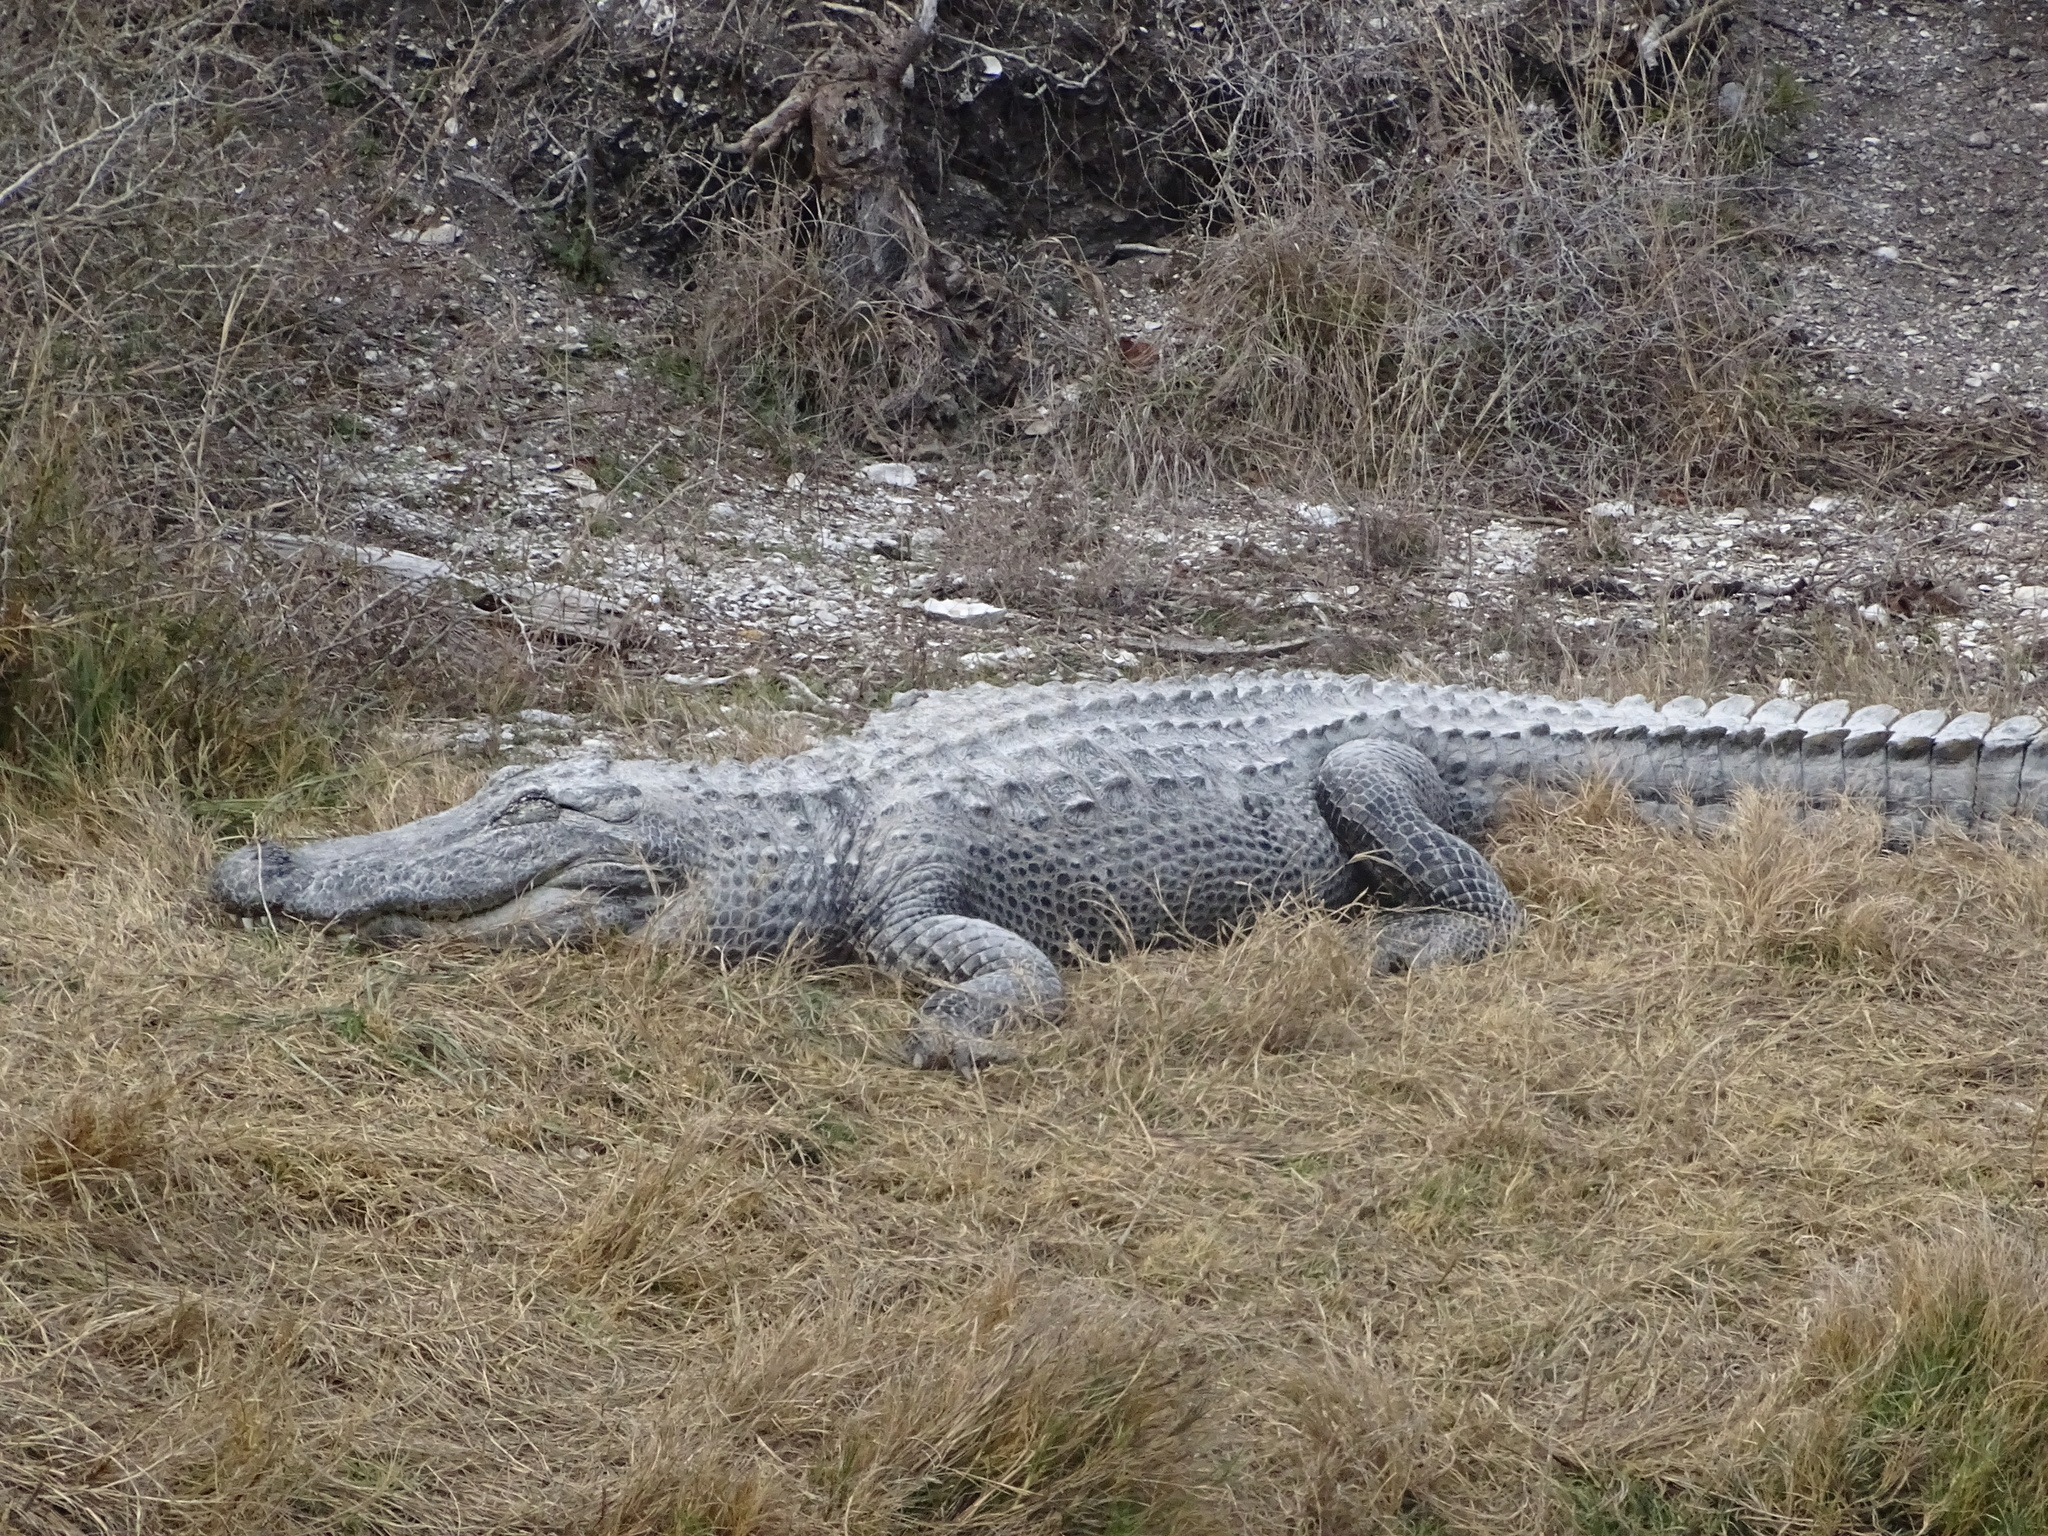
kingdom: Animalia
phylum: Chordata
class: Crocodylia
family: Alligatoridae
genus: Alligator
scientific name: Alligator mississippiensis
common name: American alligator
